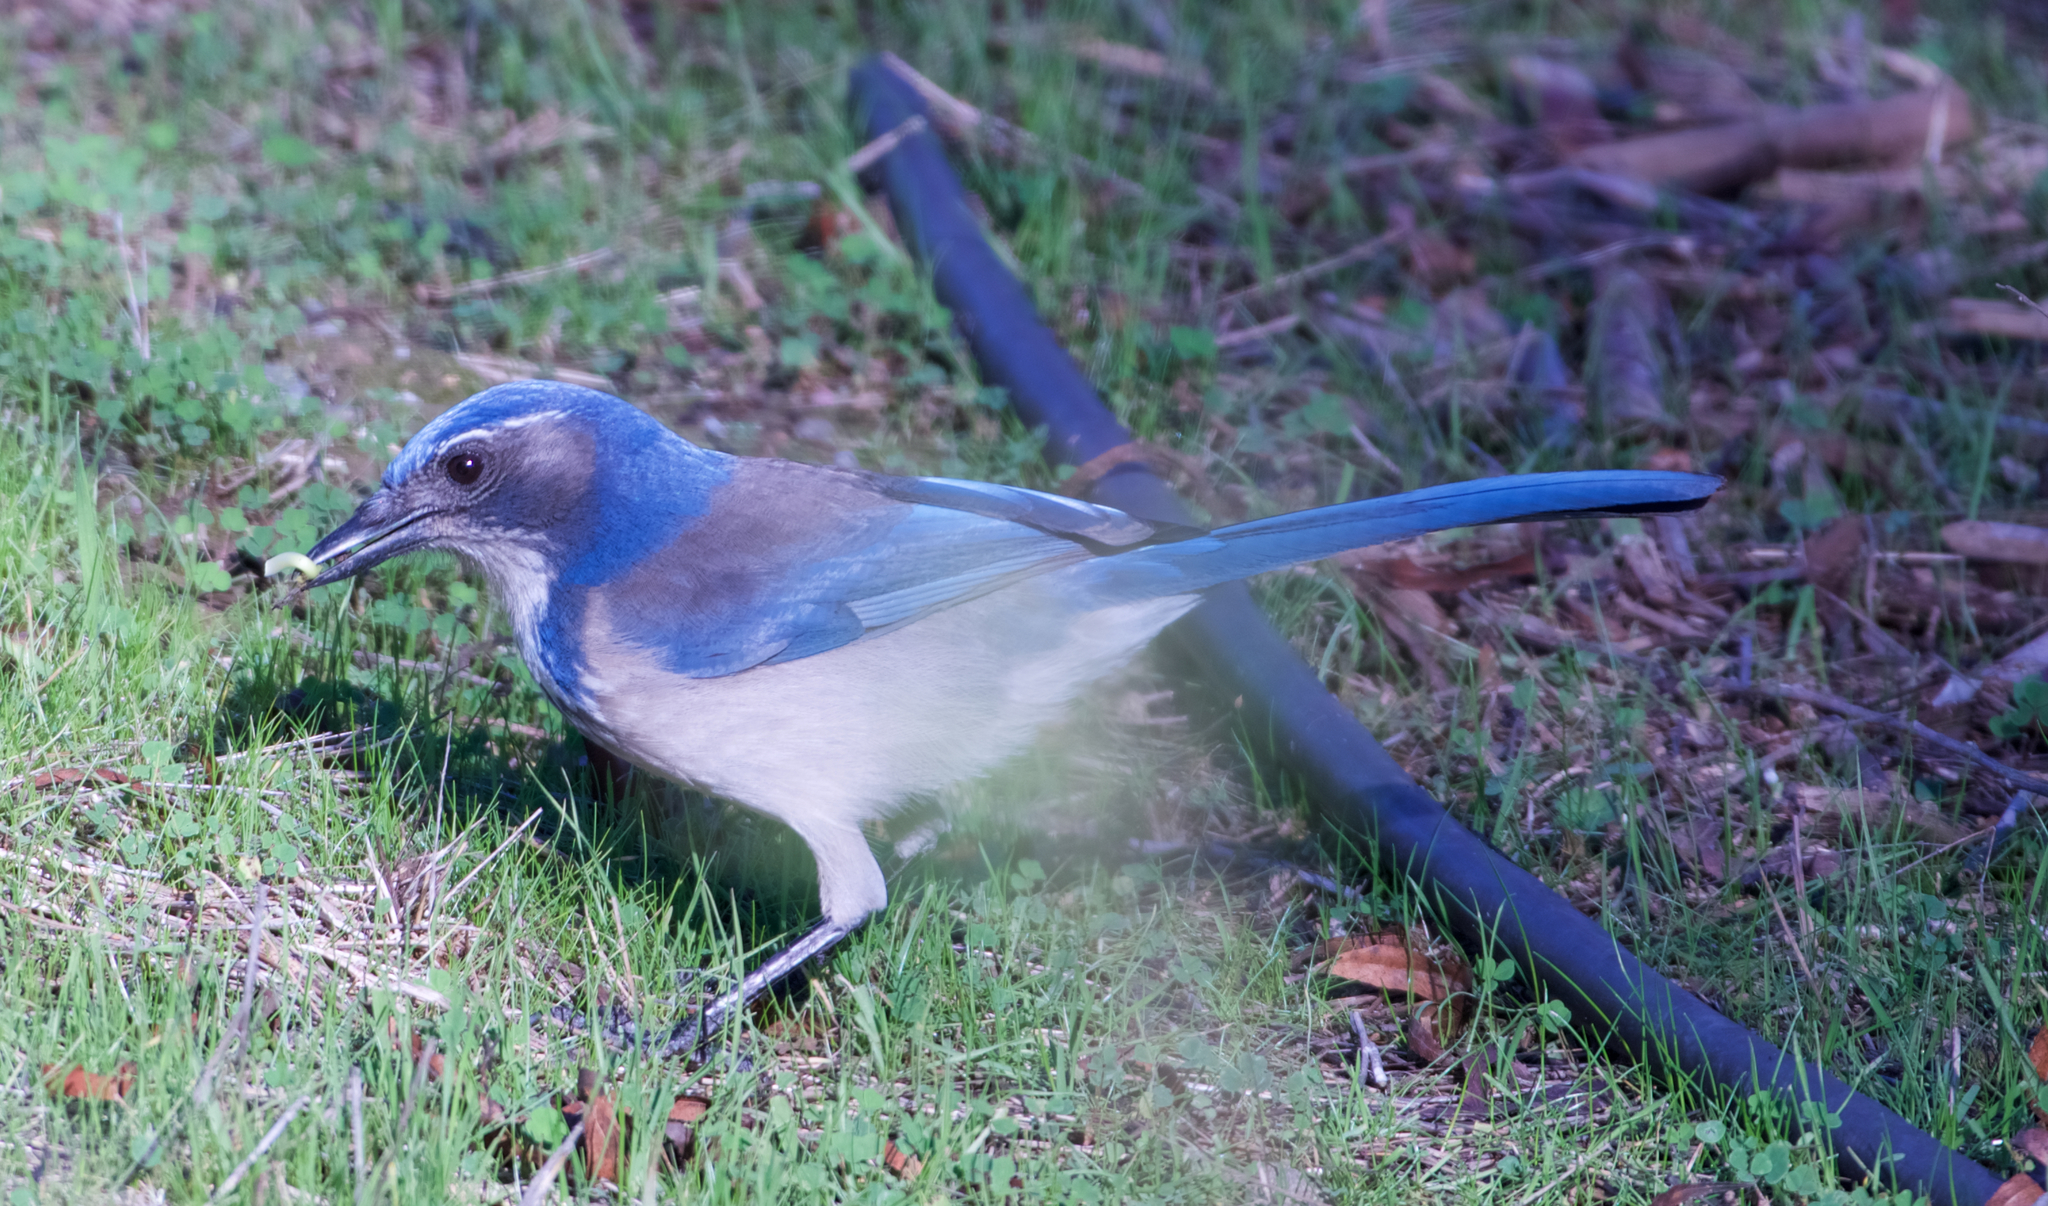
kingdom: Animalia
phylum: Chordata
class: Aves
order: Passeriformes
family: Corvidae
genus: Aphelocoma
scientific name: Aphelocoma californica
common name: California scrub-jay
